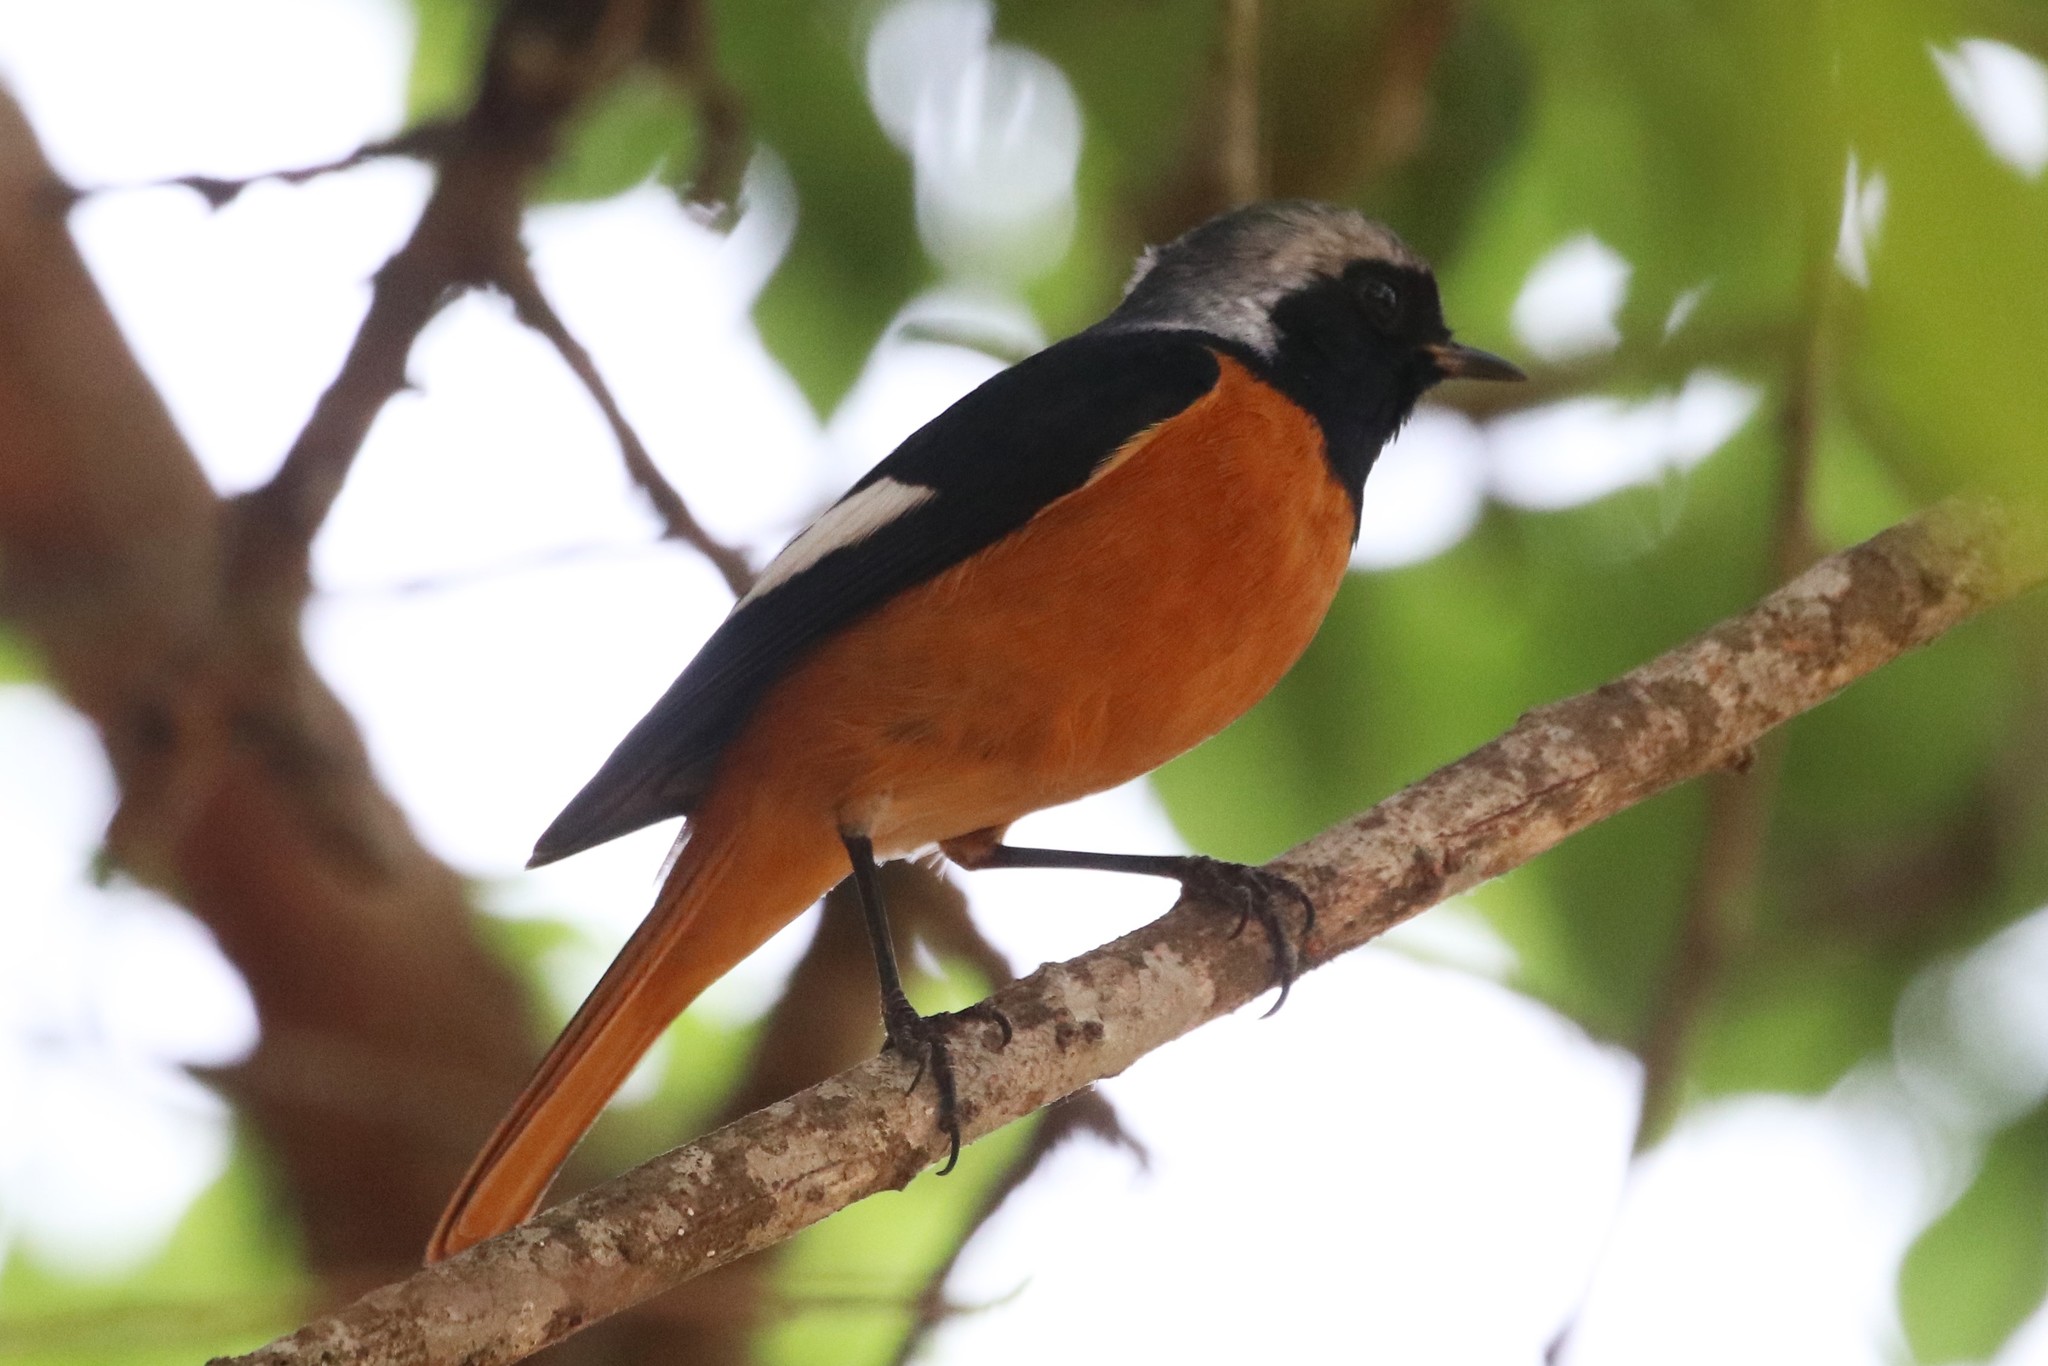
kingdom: Animalia
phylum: Chordata
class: Aves
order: Passeriformes
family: Muscicapidae
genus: Phoenicurus
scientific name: Phoenicurus auroreus
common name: Daurian redstart
